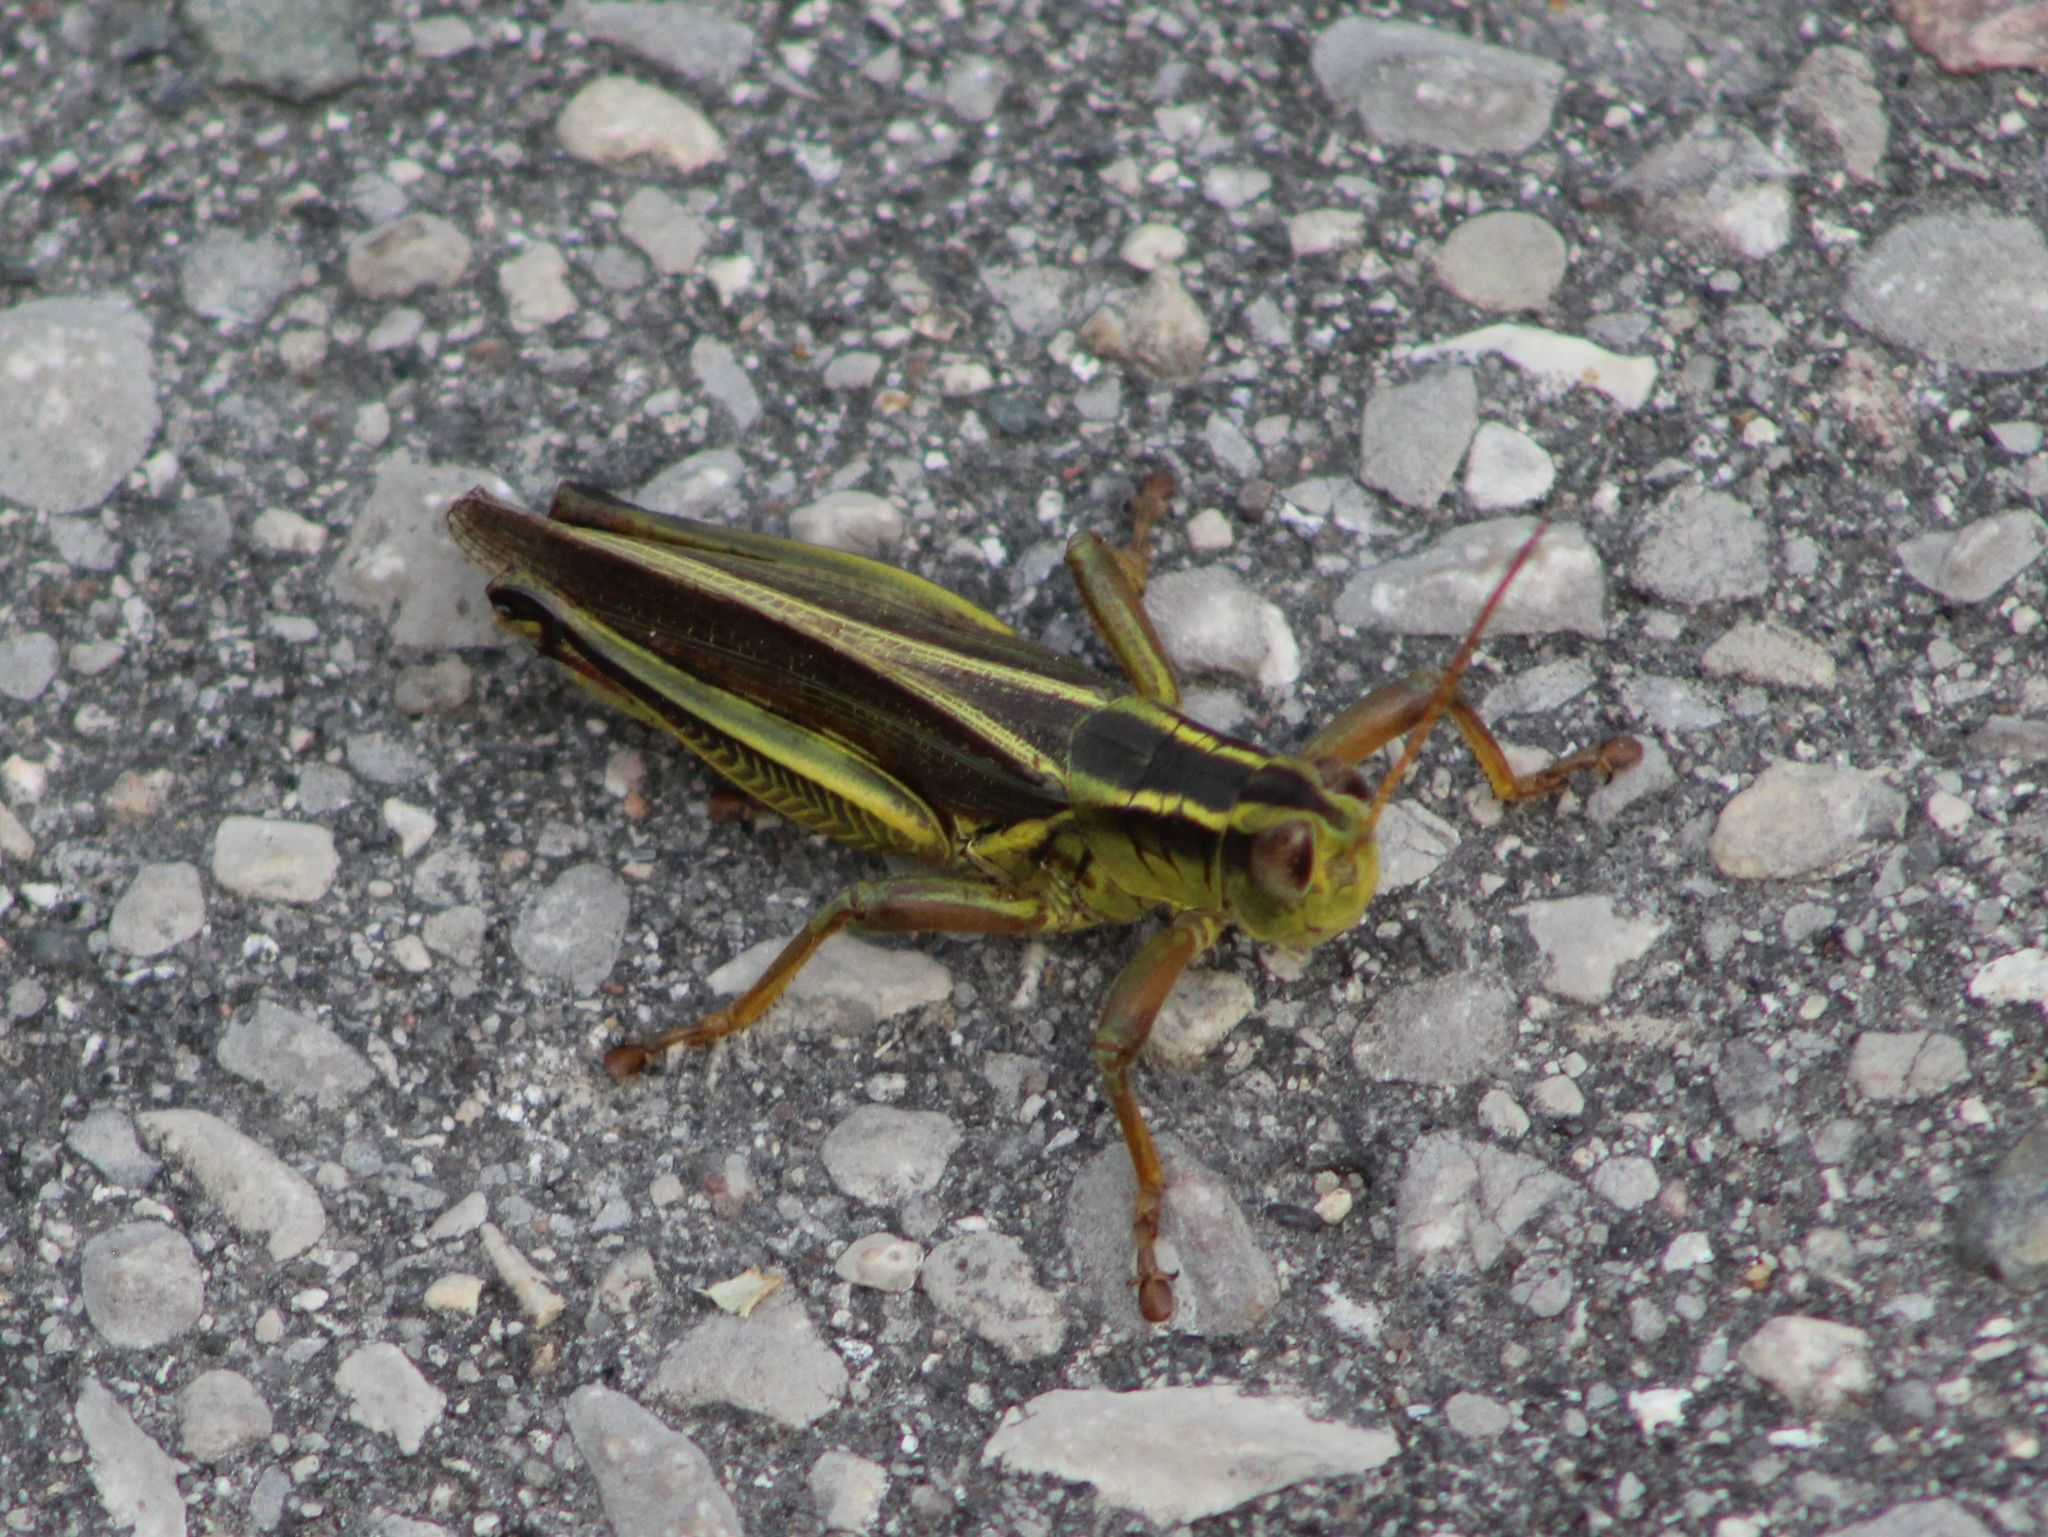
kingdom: Animalia
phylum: Arthropoda
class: Insecta
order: Orthoptera
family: Acrididae
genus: Melanoplus
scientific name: Melanoplus bivittatus
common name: Two-striped grasshopper
